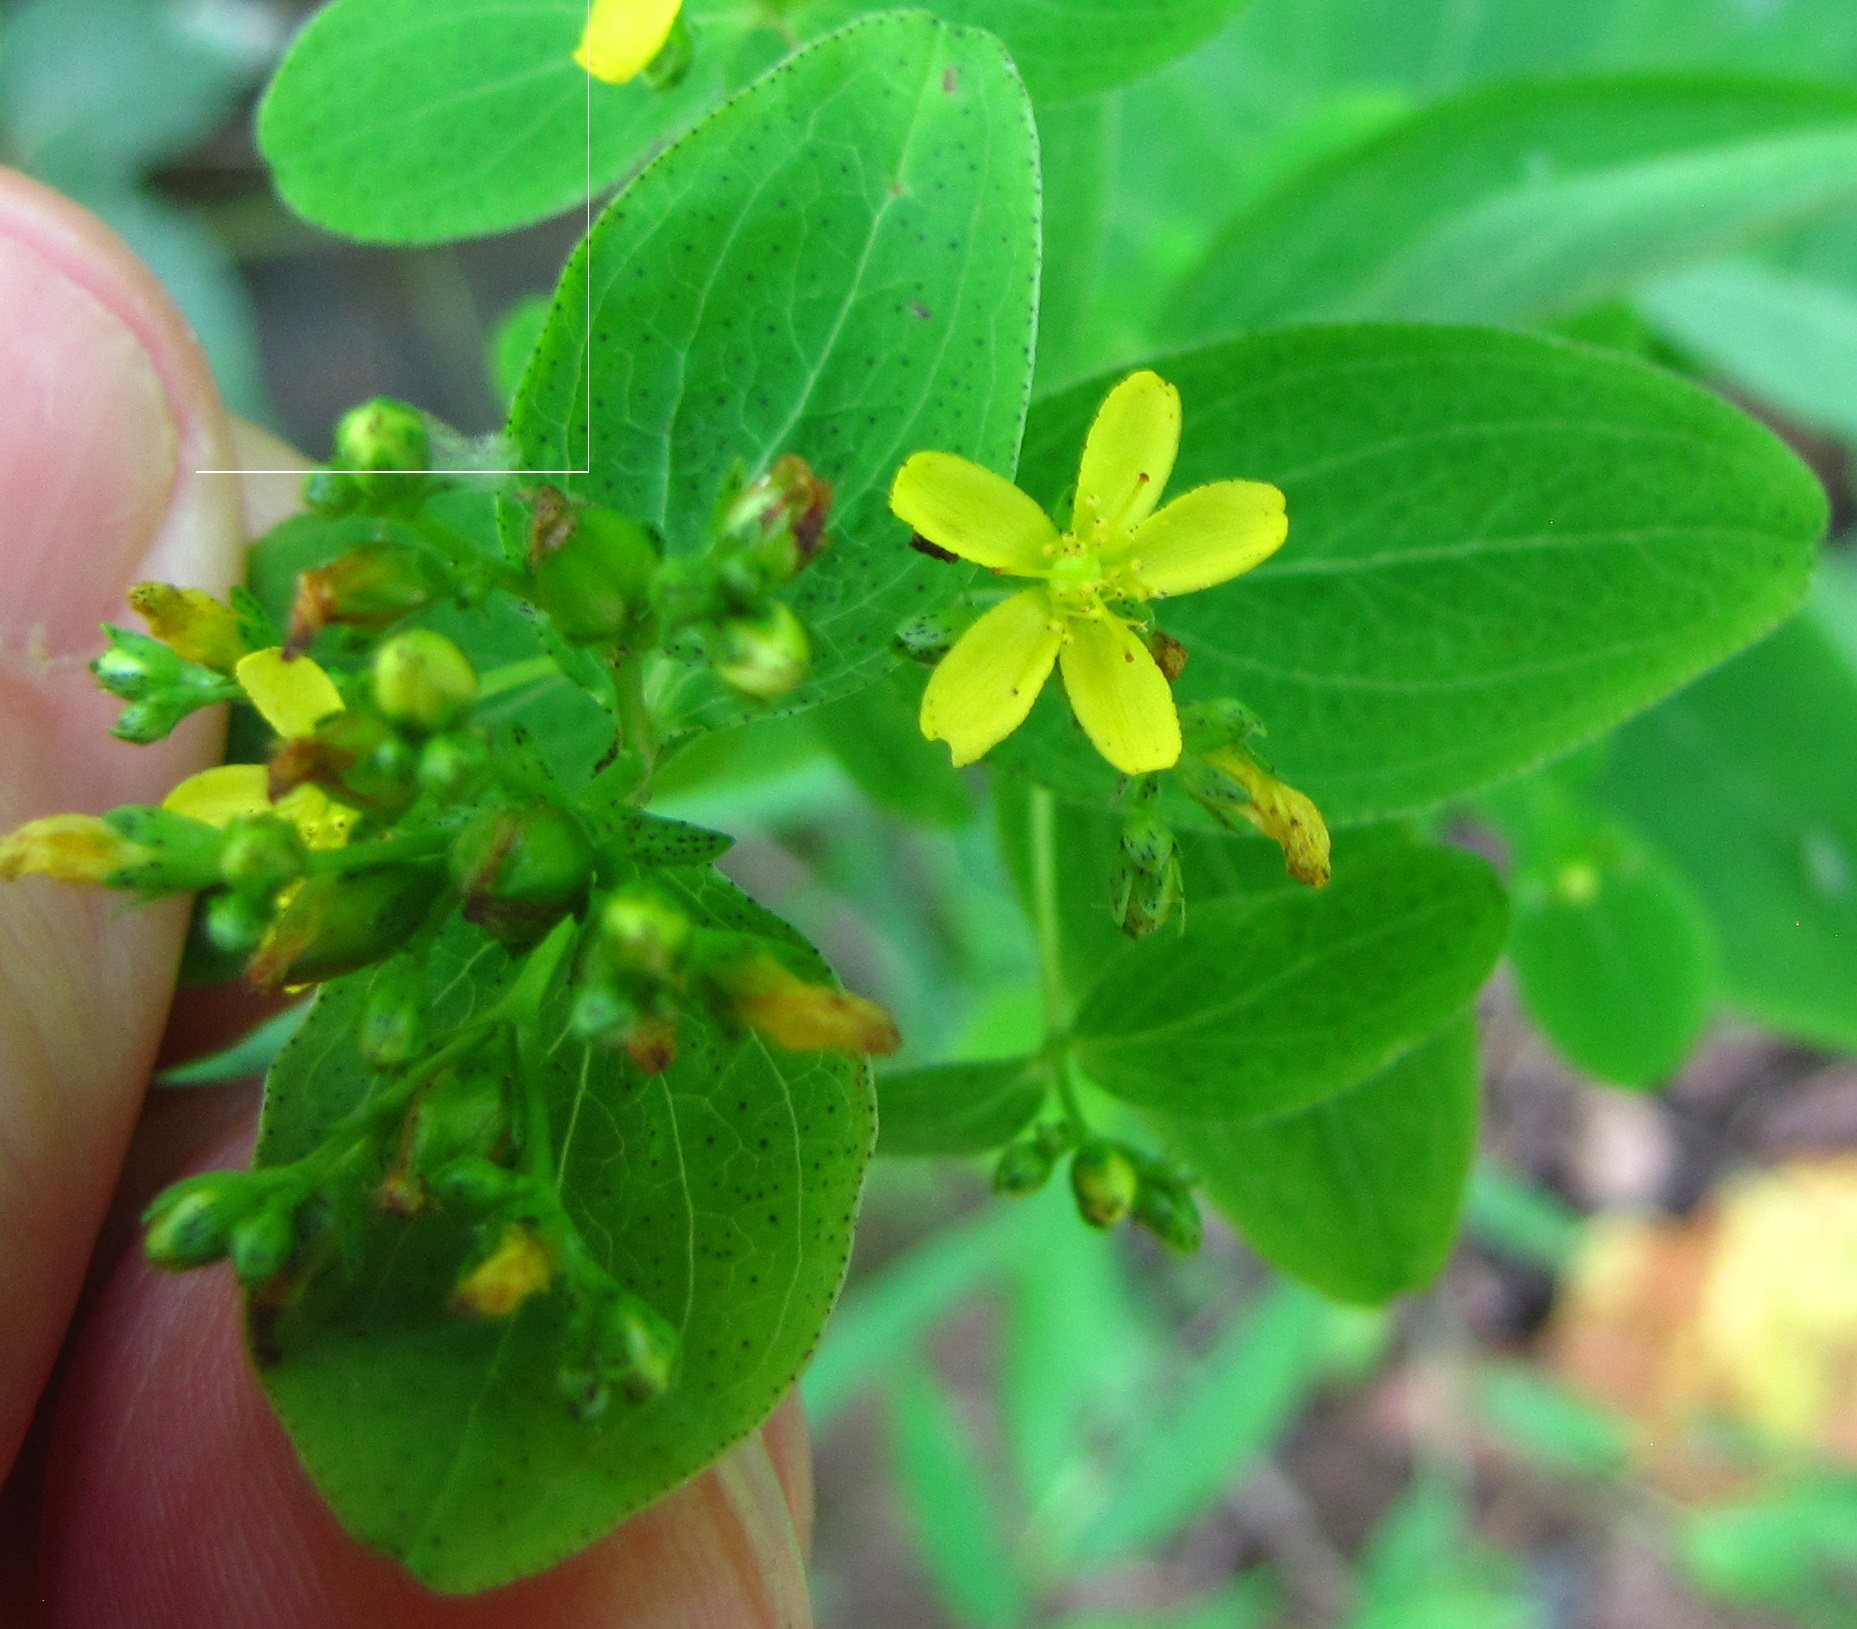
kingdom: Plantae
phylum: Tracheophyta
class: Magnoliopsida
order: Malpighiales
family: Hypericaceae
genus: Hypericum
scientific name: Hypericum punctatum
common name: Spotted st. john's-wort
